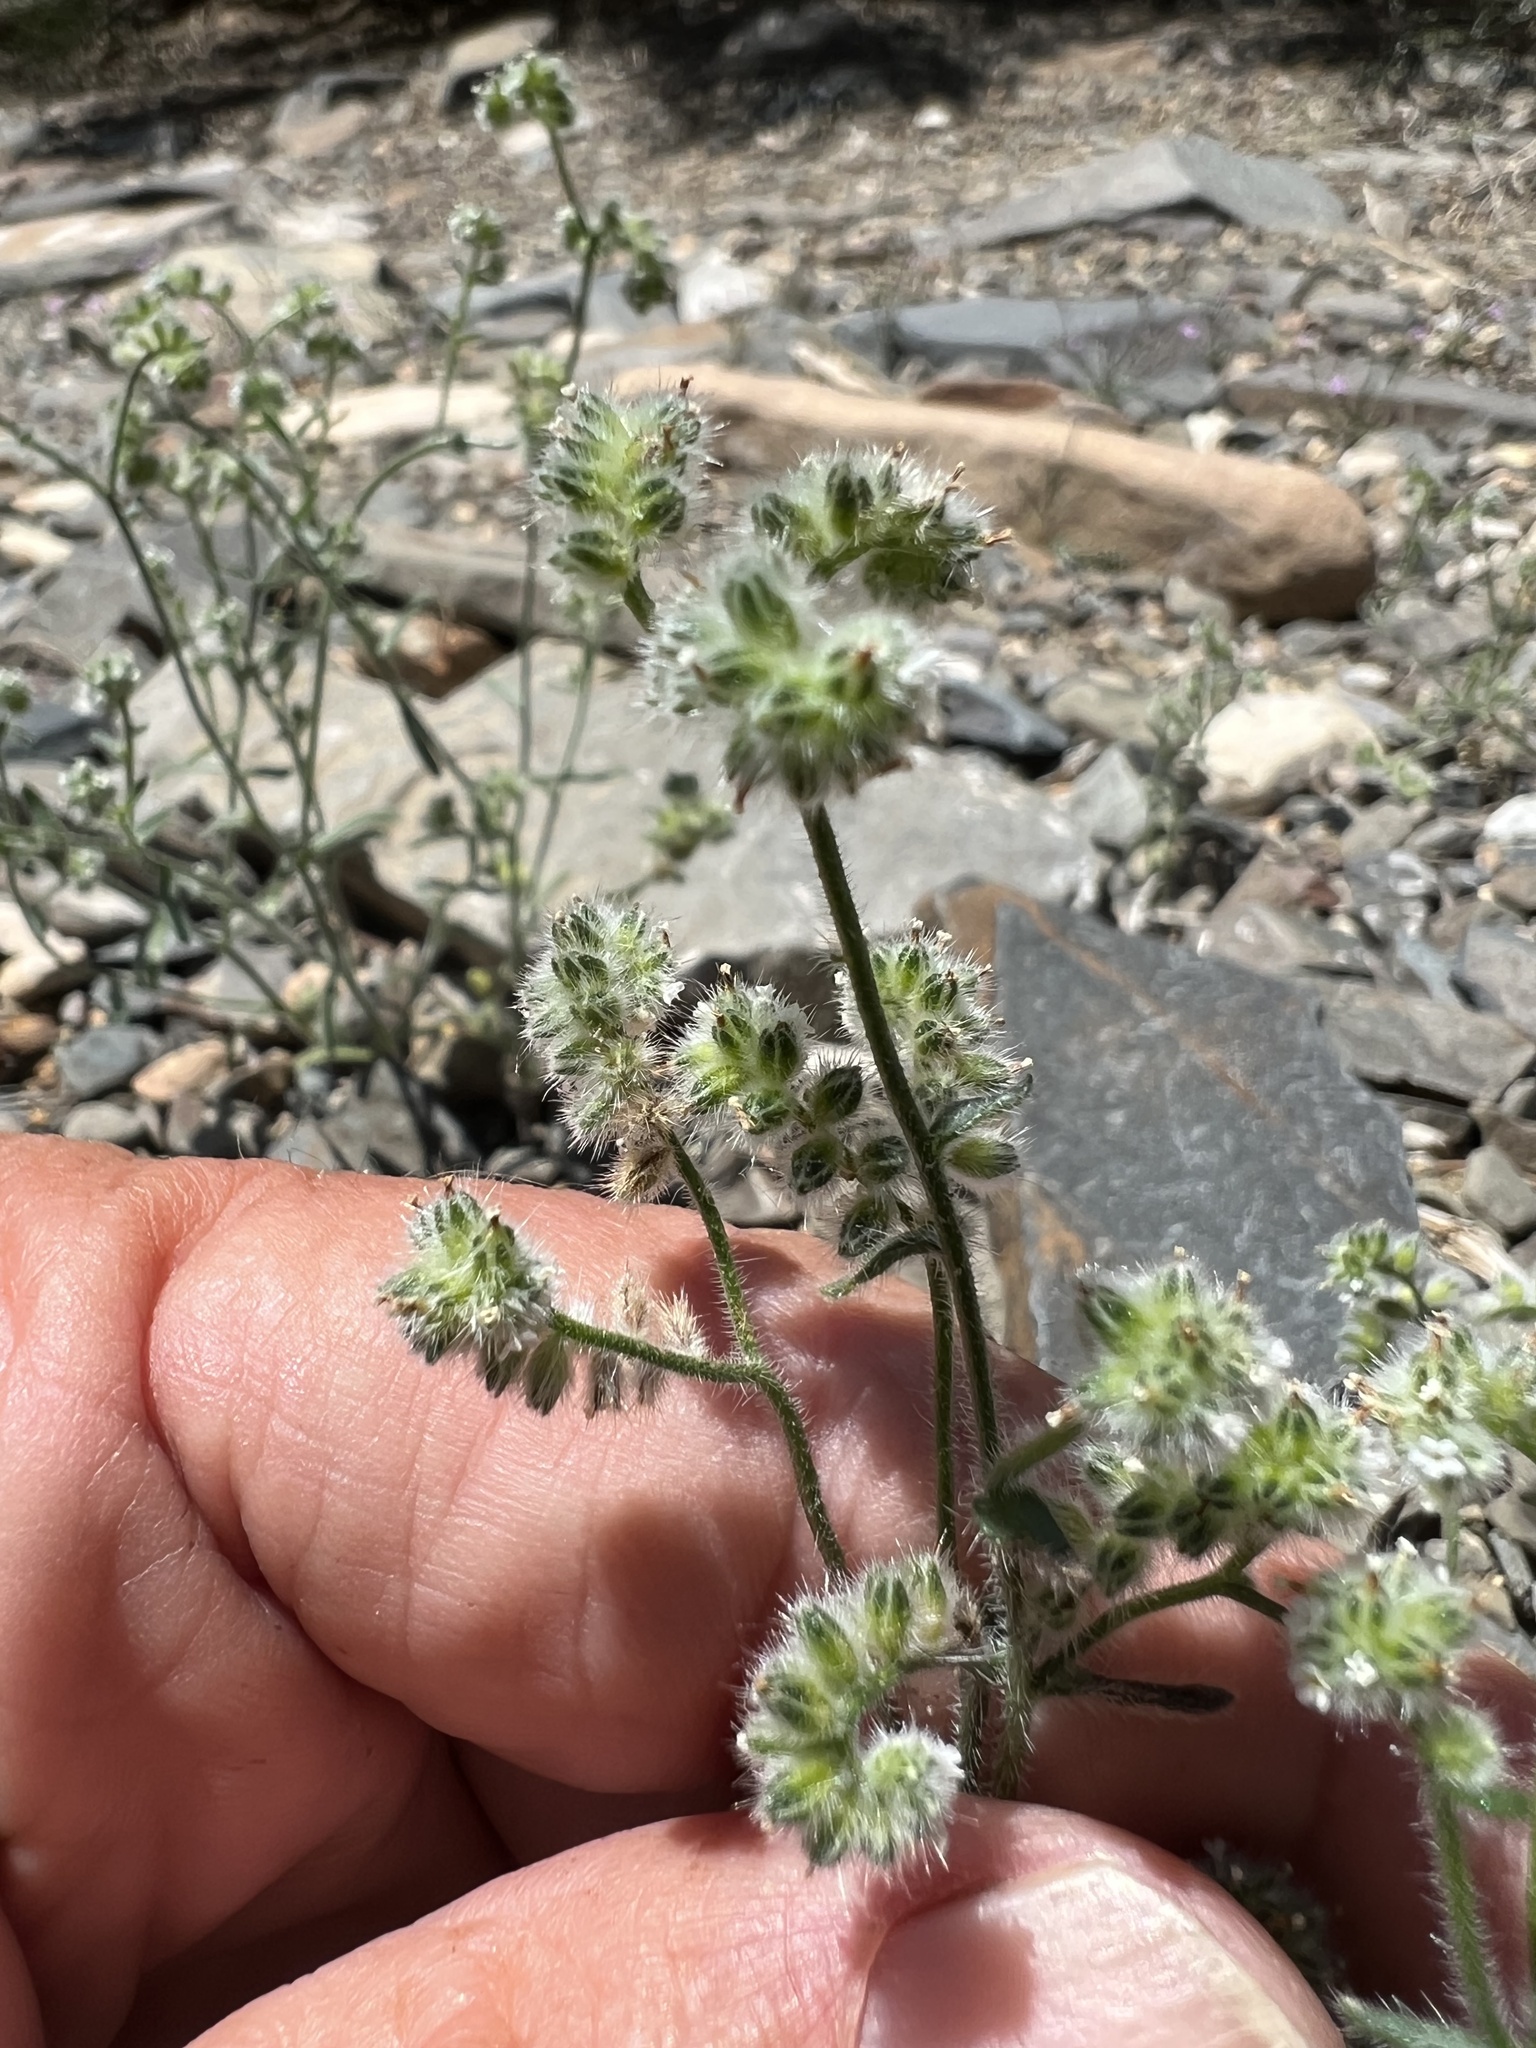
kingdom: Plantae
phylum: Tracheophyta
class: Magnoliopsida
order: Boraginales
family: Boraginaceae
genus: Cryptantha
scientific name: Cryptantha gracilis
